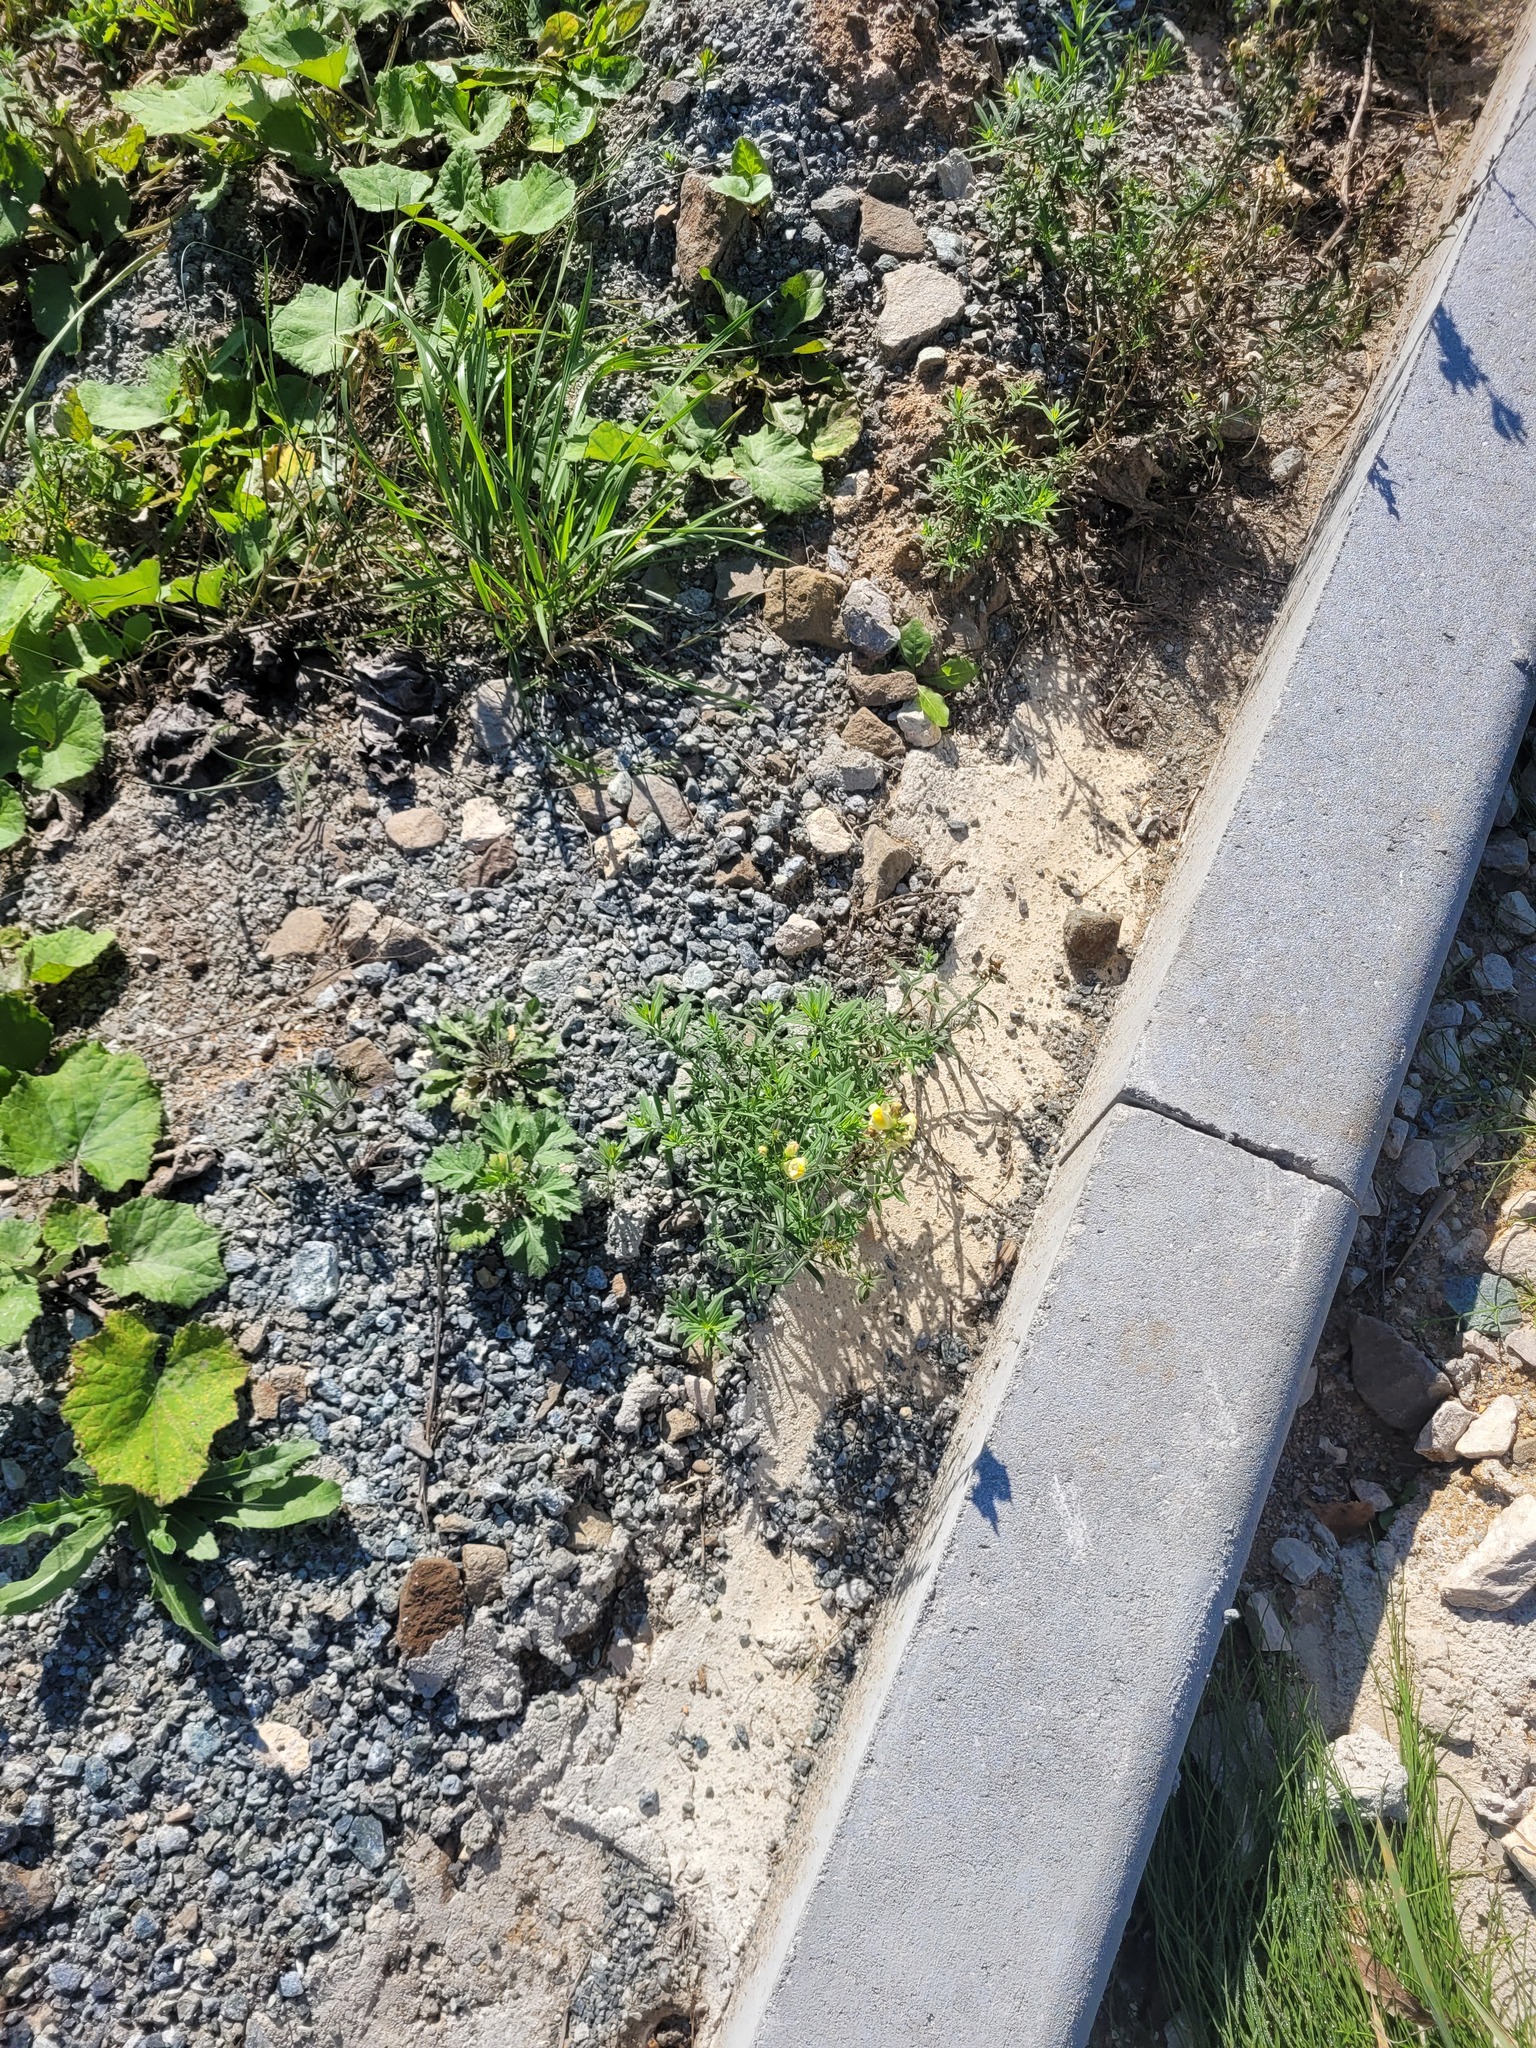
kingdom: Plantae
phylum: Tracheophyta
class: Magnoliopsida
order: Lamiales
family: Plantaginaceae
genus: Linaria
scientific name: Linaria vulgaris
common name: Butter and eggs
